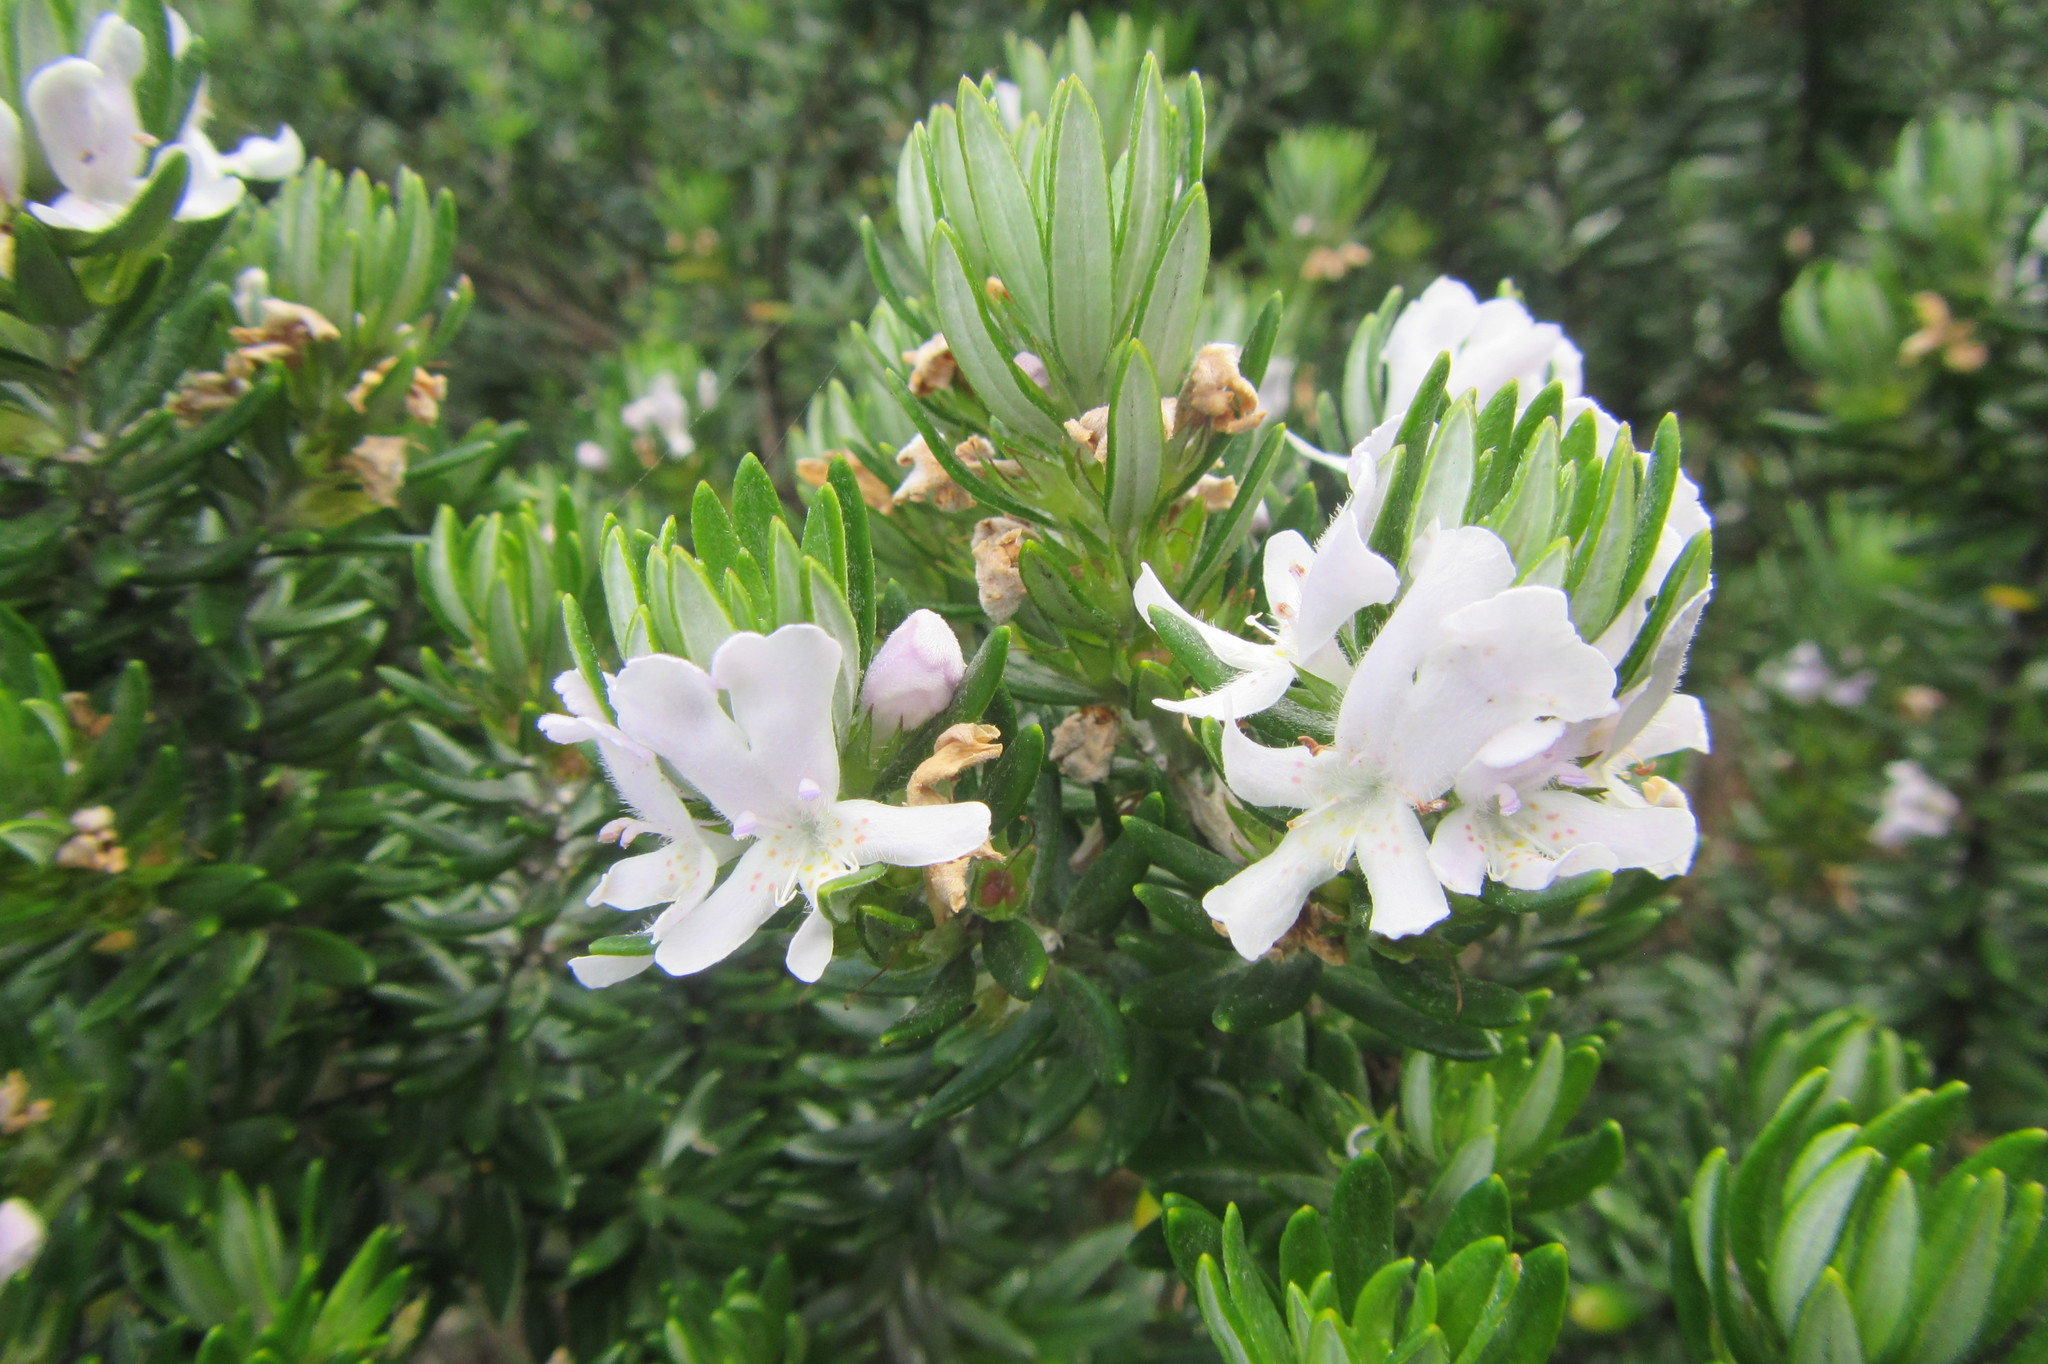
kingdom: Plantae
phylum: Tracheophyta
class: Magnoliopsida
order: Lamiales
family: Lamiaceae
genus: Westringia
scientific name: Westringia fruticosa
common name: Coastal-rosemary
